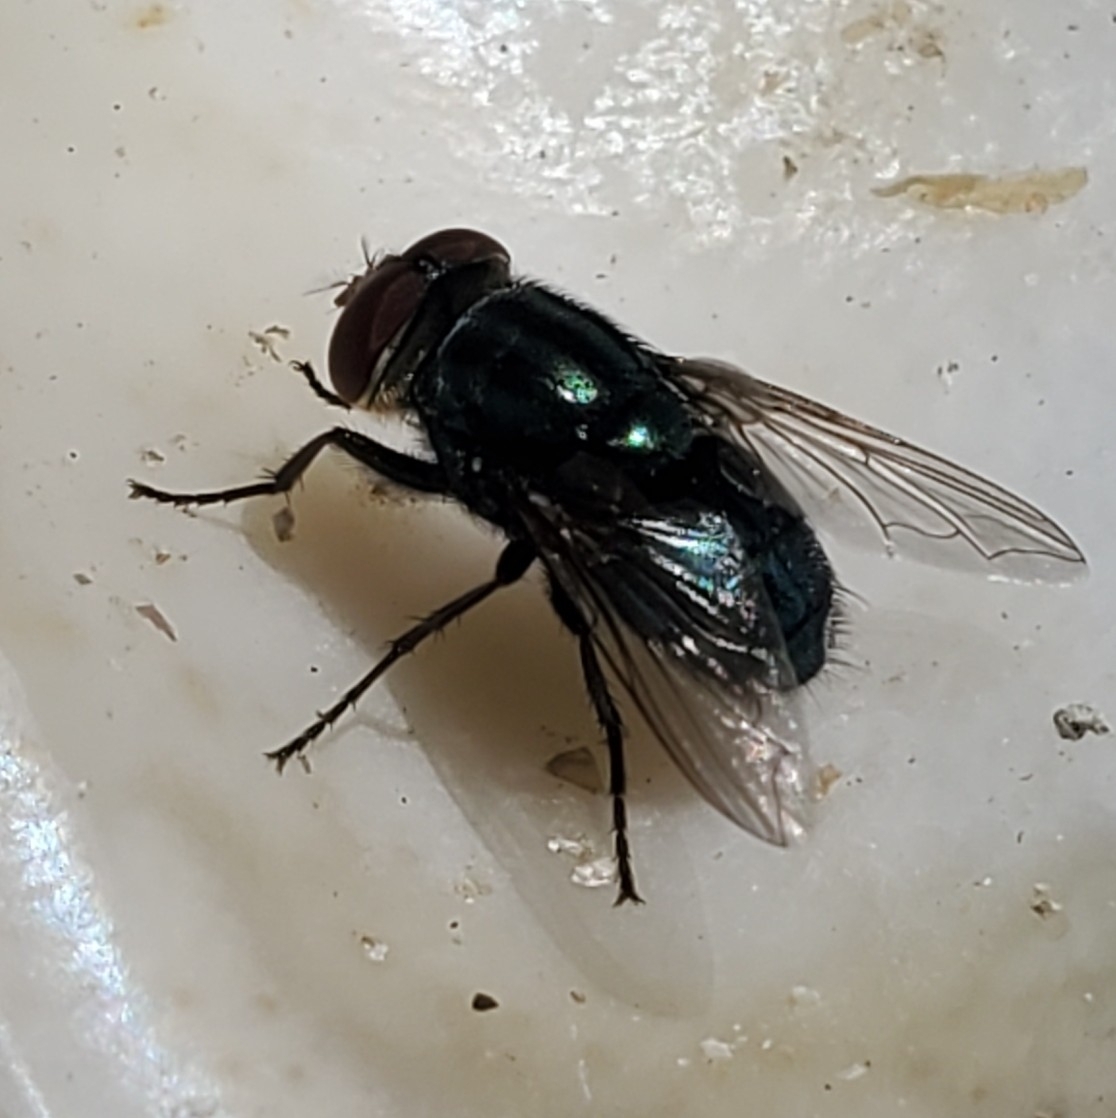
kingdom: Animalia
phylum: Arthropoda
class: Insecta
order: Diptera
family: Calliphoridae
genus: Cochliomyia
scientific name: Cochliomyia macellaria
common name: Secondary screwworm
